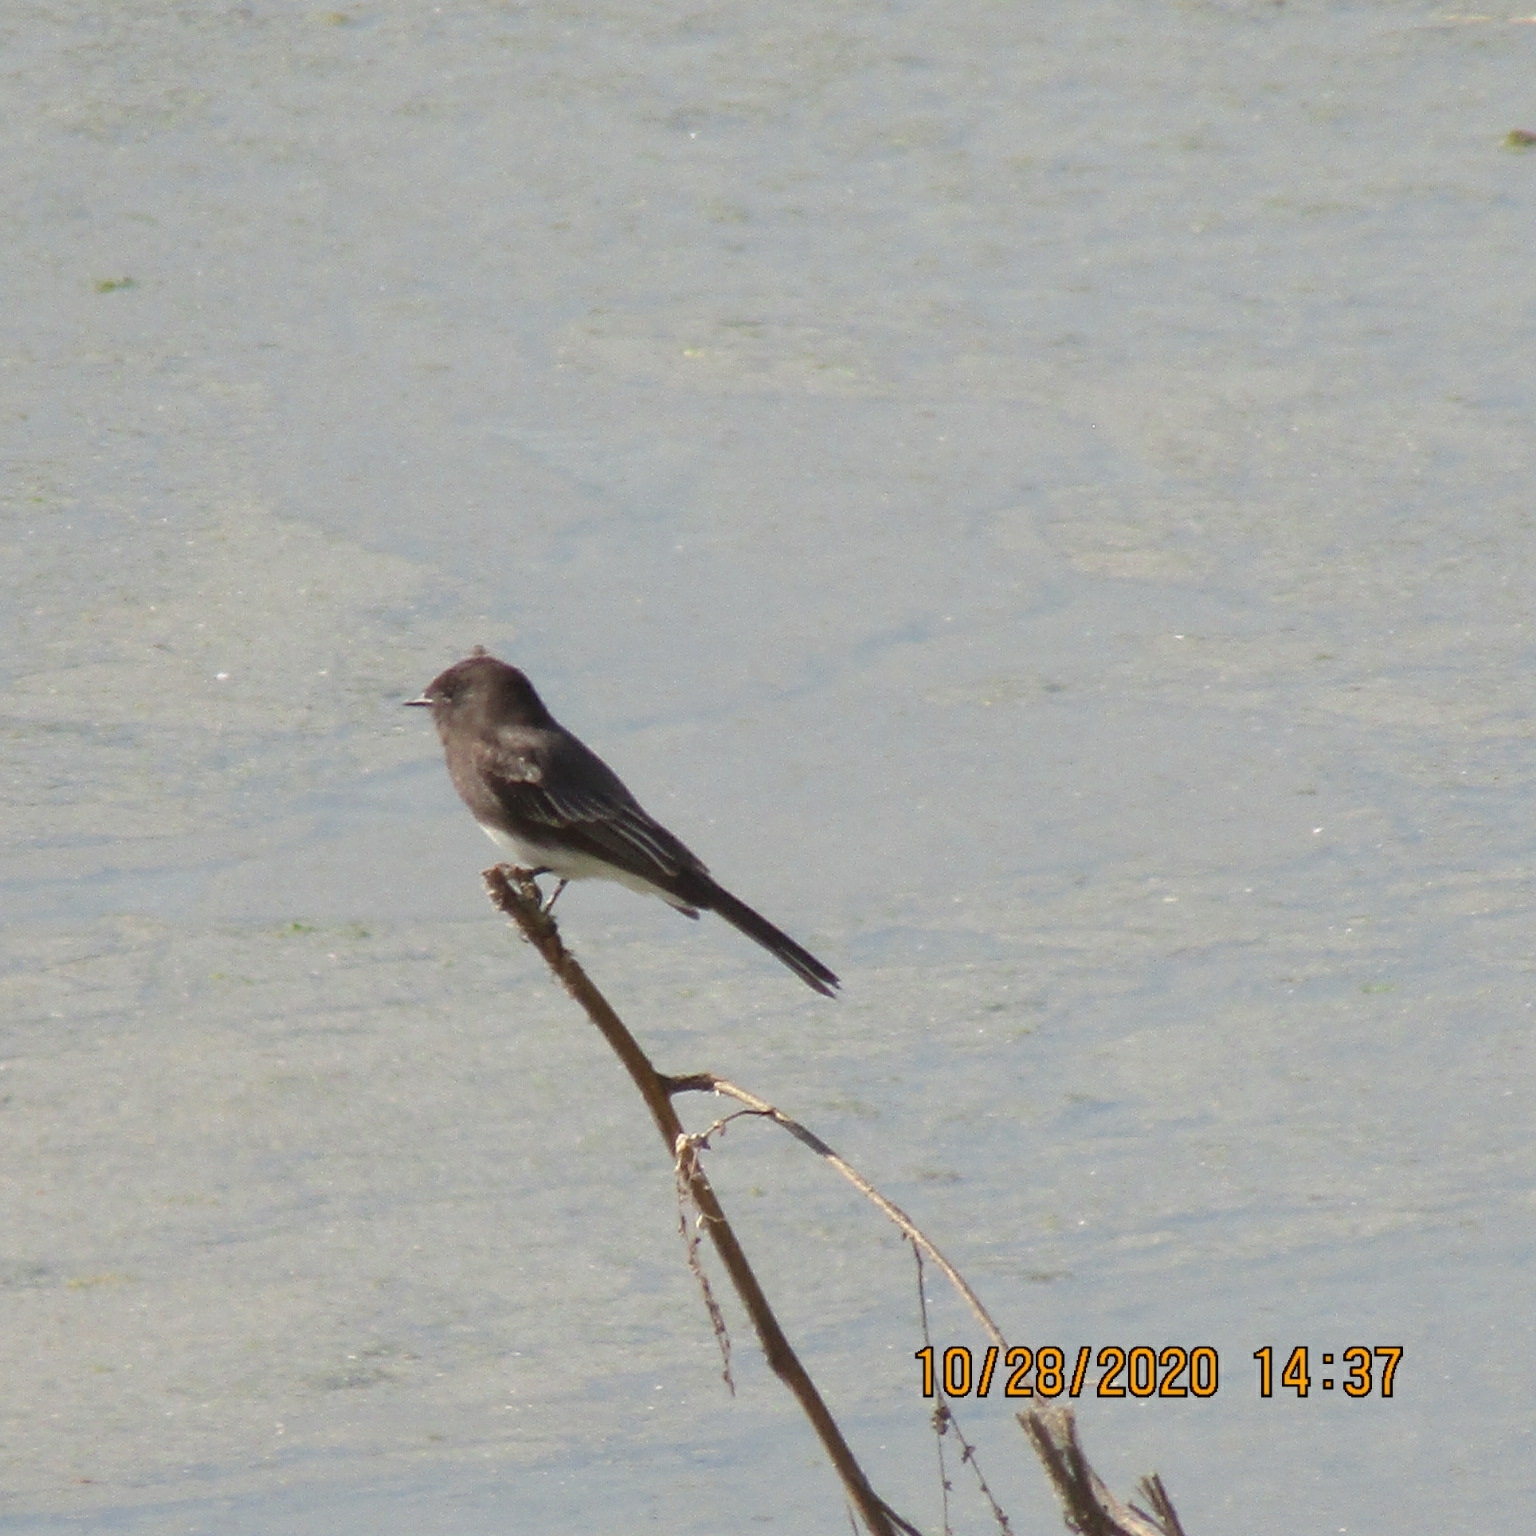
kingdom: Animalia
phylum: Chordata
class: Aves
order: Passeriformes
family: Tyrannidae
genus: Sayornis
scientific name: Sayornis nigricans
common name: Black phoebe
